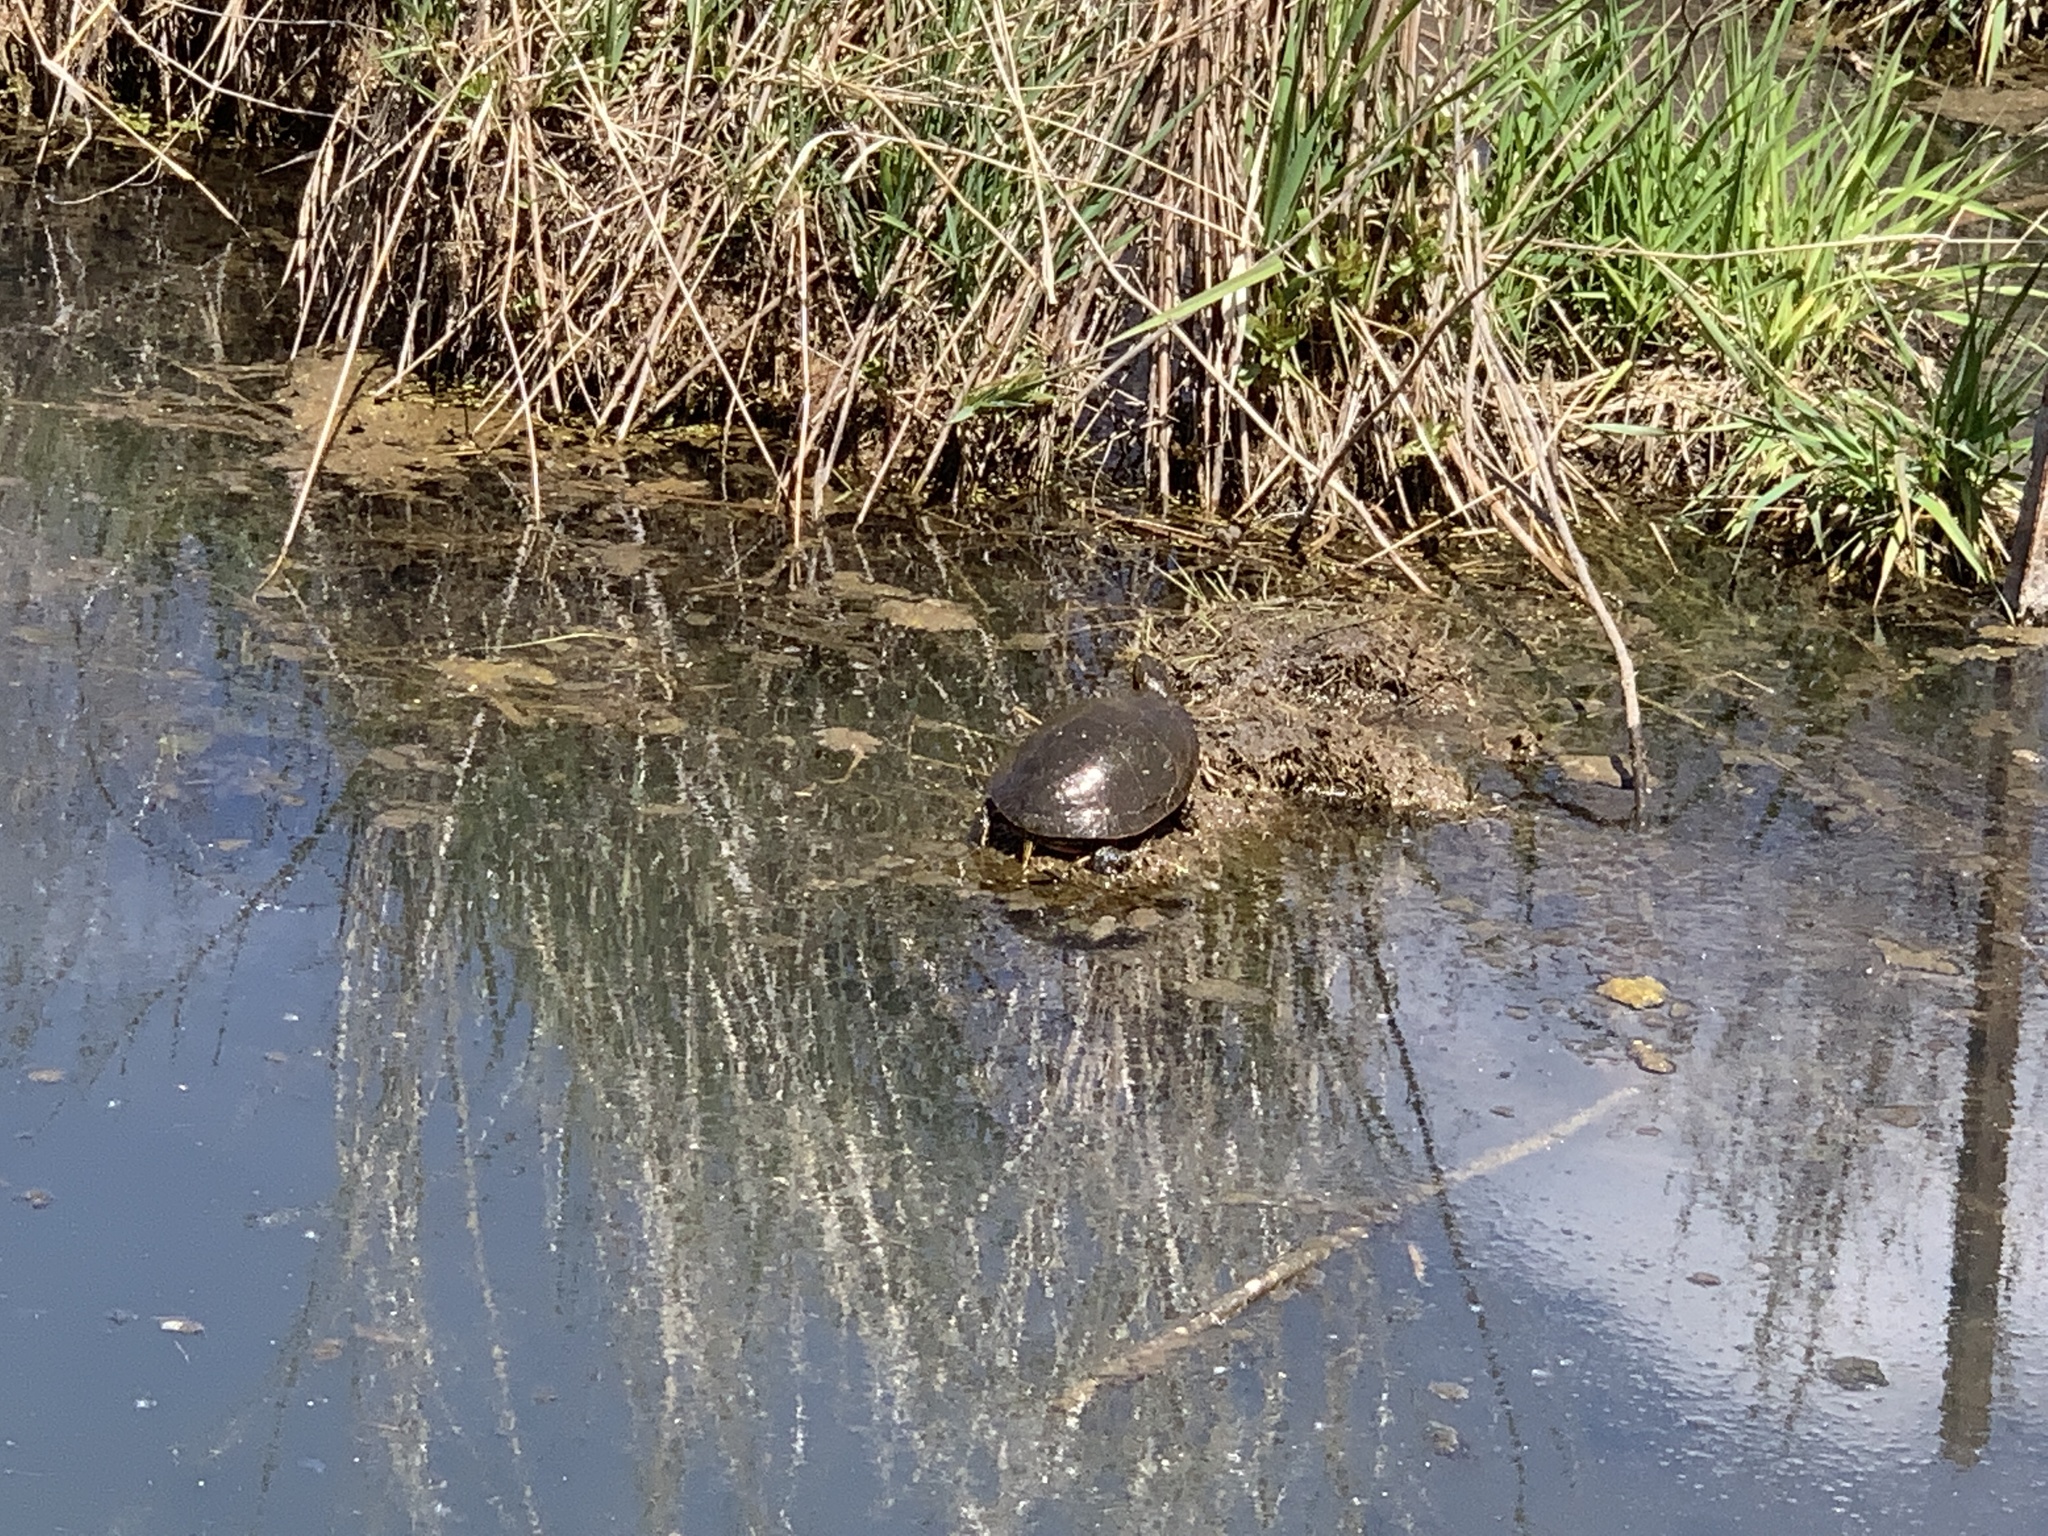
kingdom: Animalia
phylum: Chordata
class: Testudines
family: Emydidae
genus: Chrysemys
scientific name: Chrysemys picta
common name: Painted turtle
